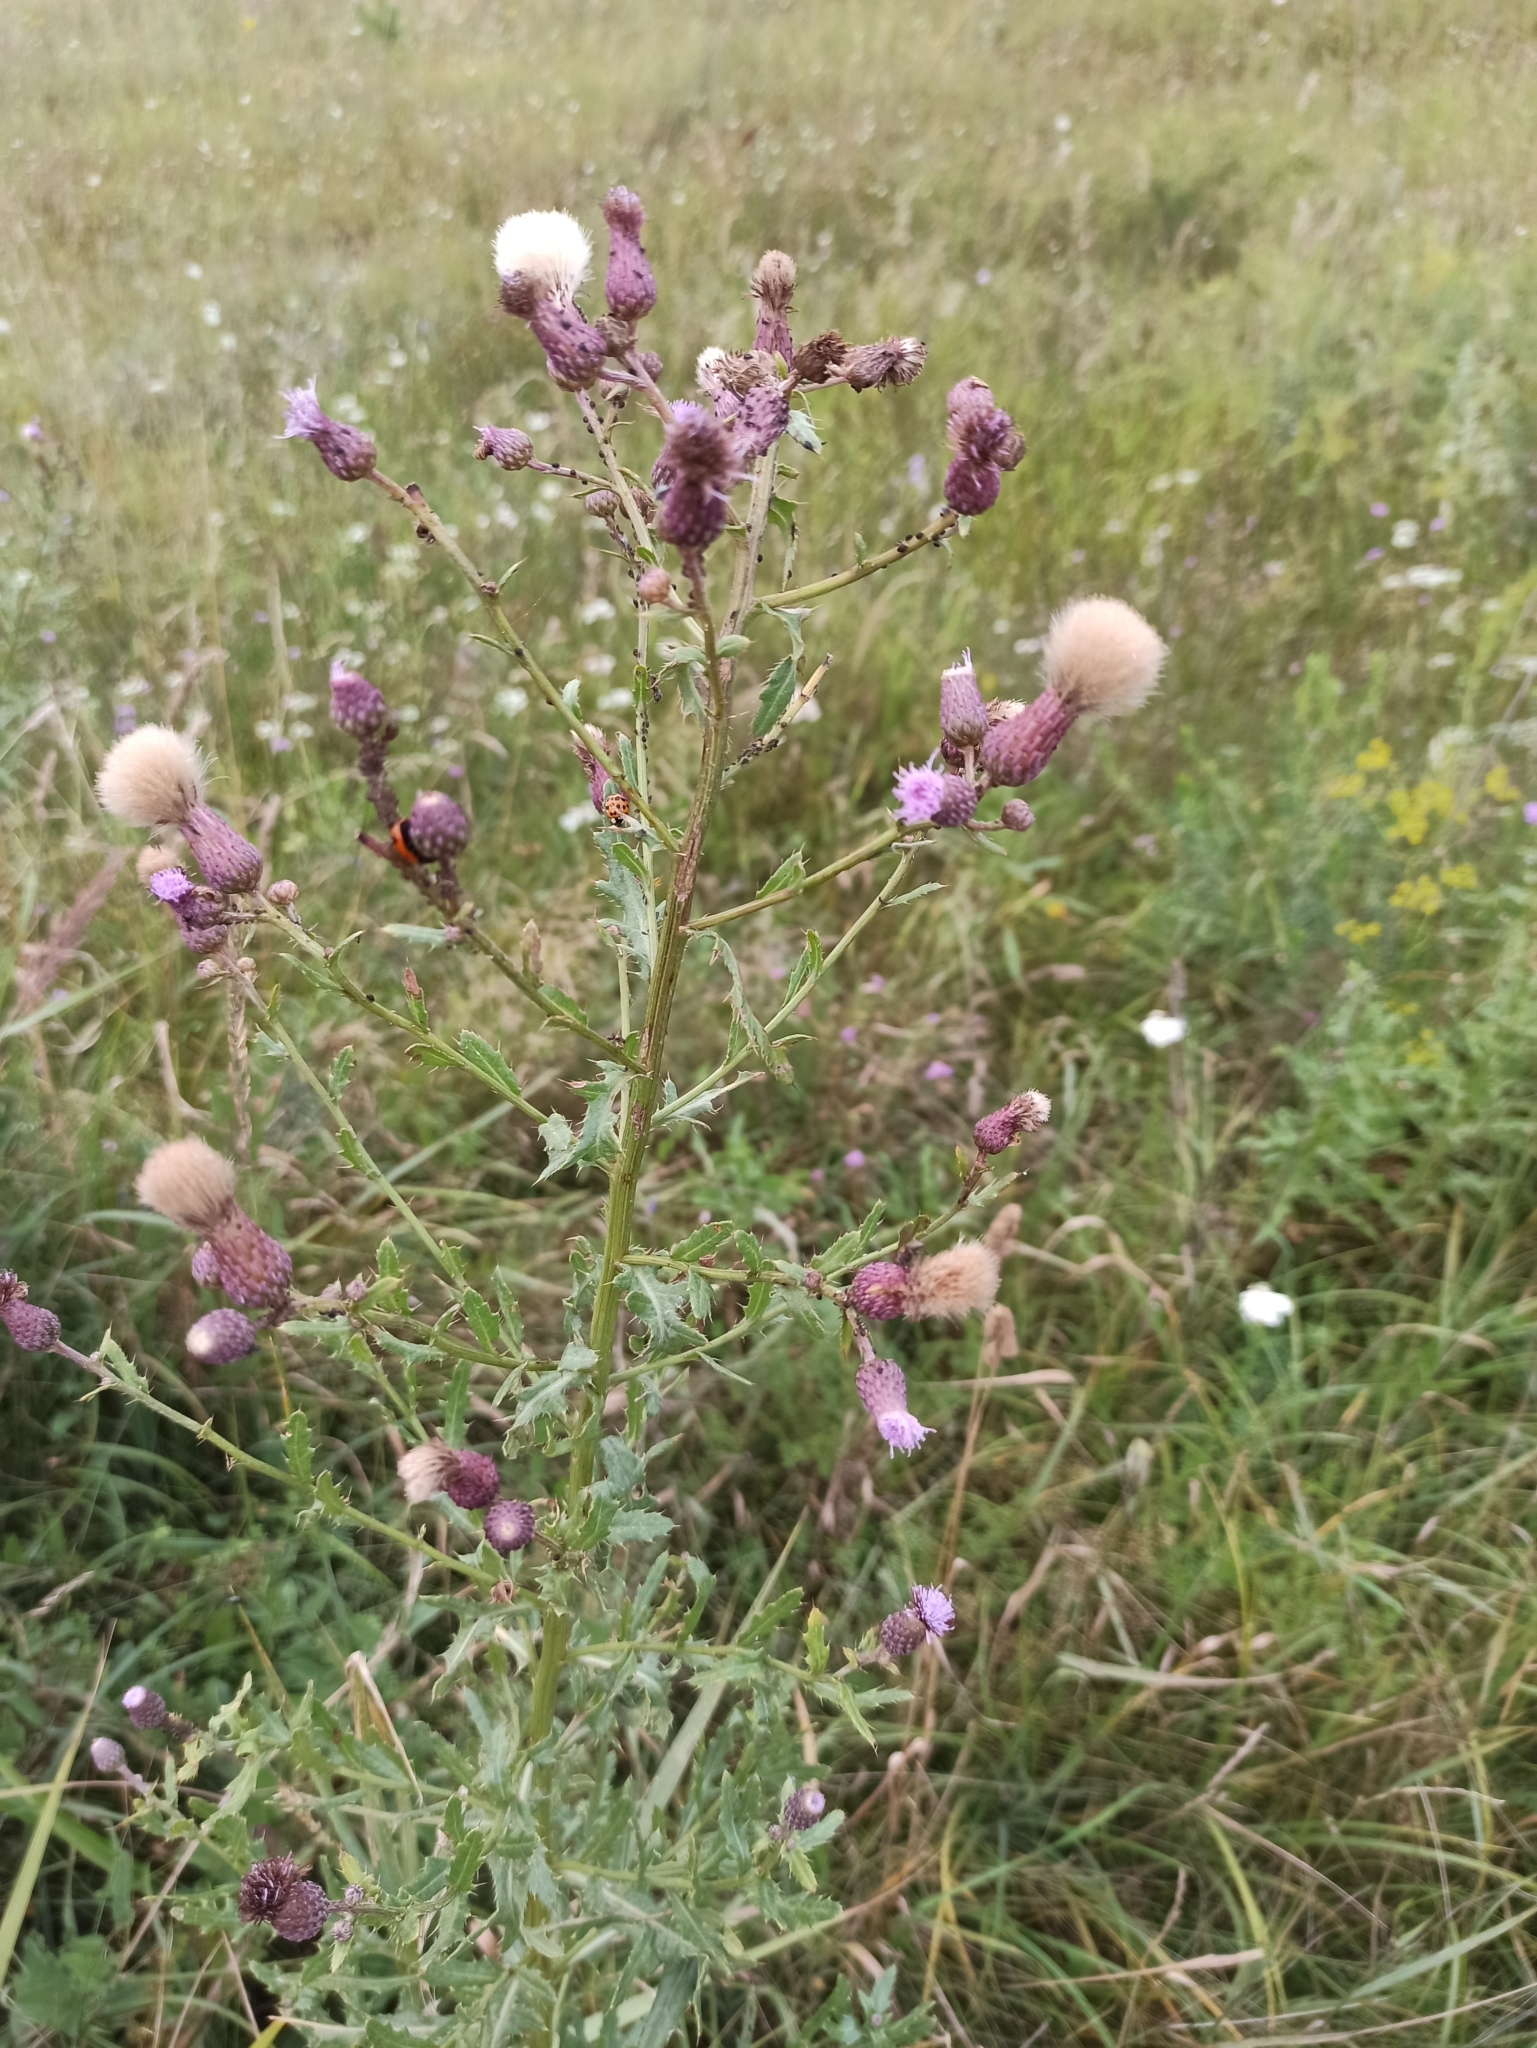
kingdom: Plantae
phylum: Tracheophyta
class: Magnoliopsida
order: Asterales
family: Asteraceae
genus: Cirsium
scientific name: Cirsium arvense
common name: Creeping thistle
